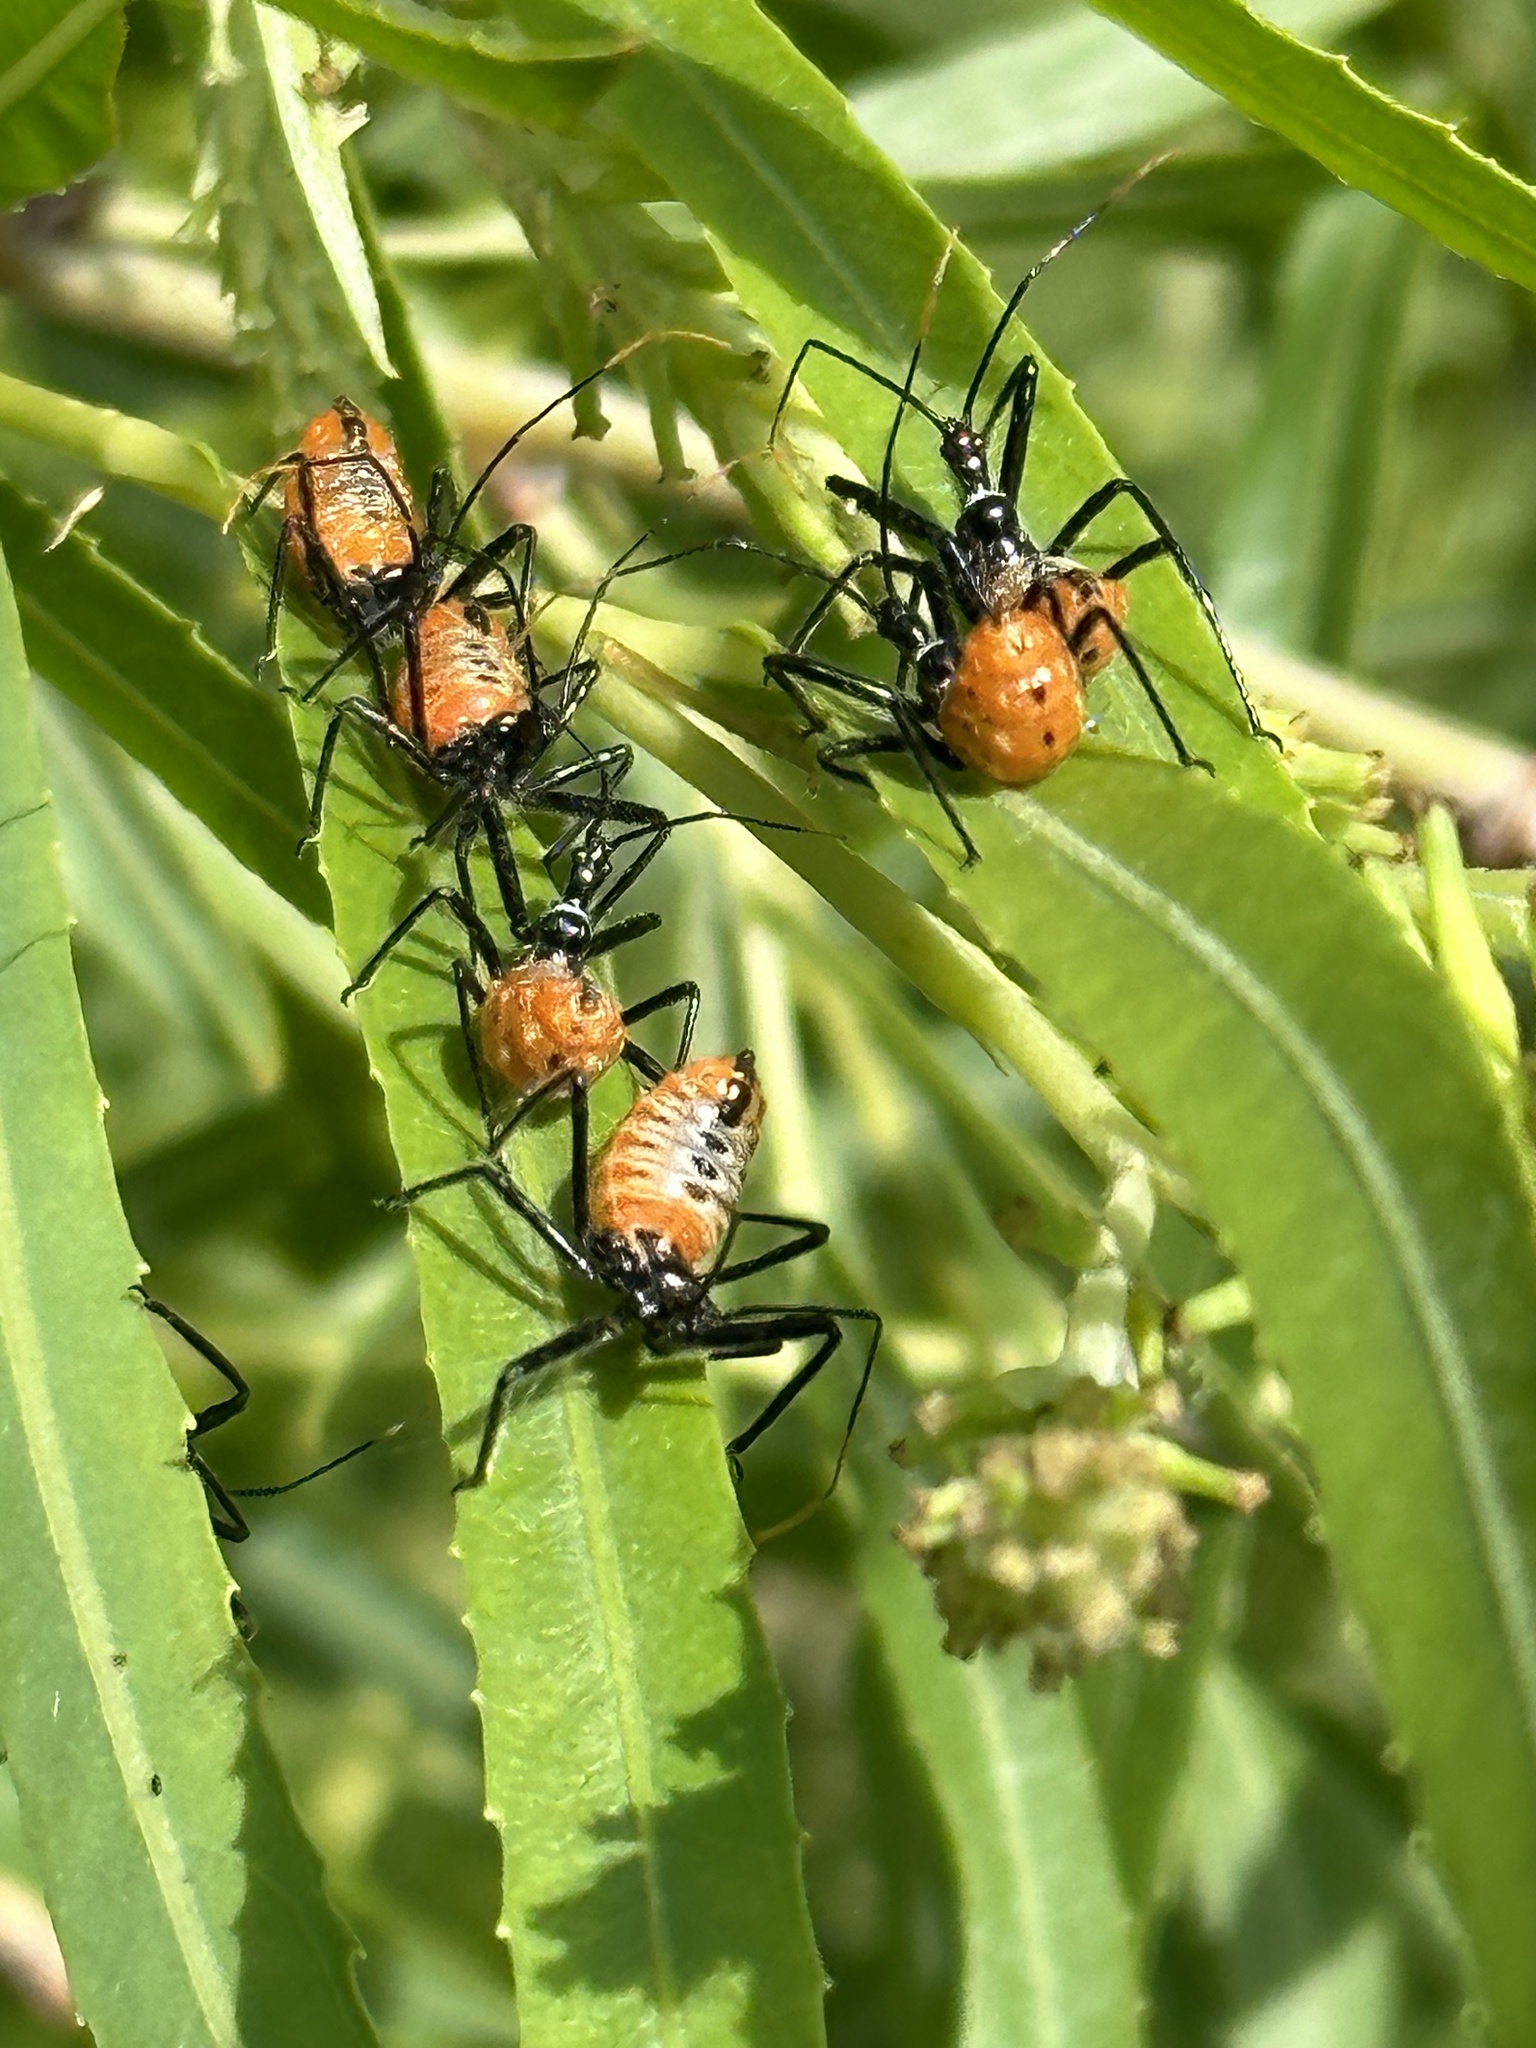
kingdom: Animalia
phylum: Arthropoda
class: Insecta
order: Hemiptera
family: Reduviidae
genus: Arilus
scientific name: Arilus cristatus
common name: North american wheel bug
